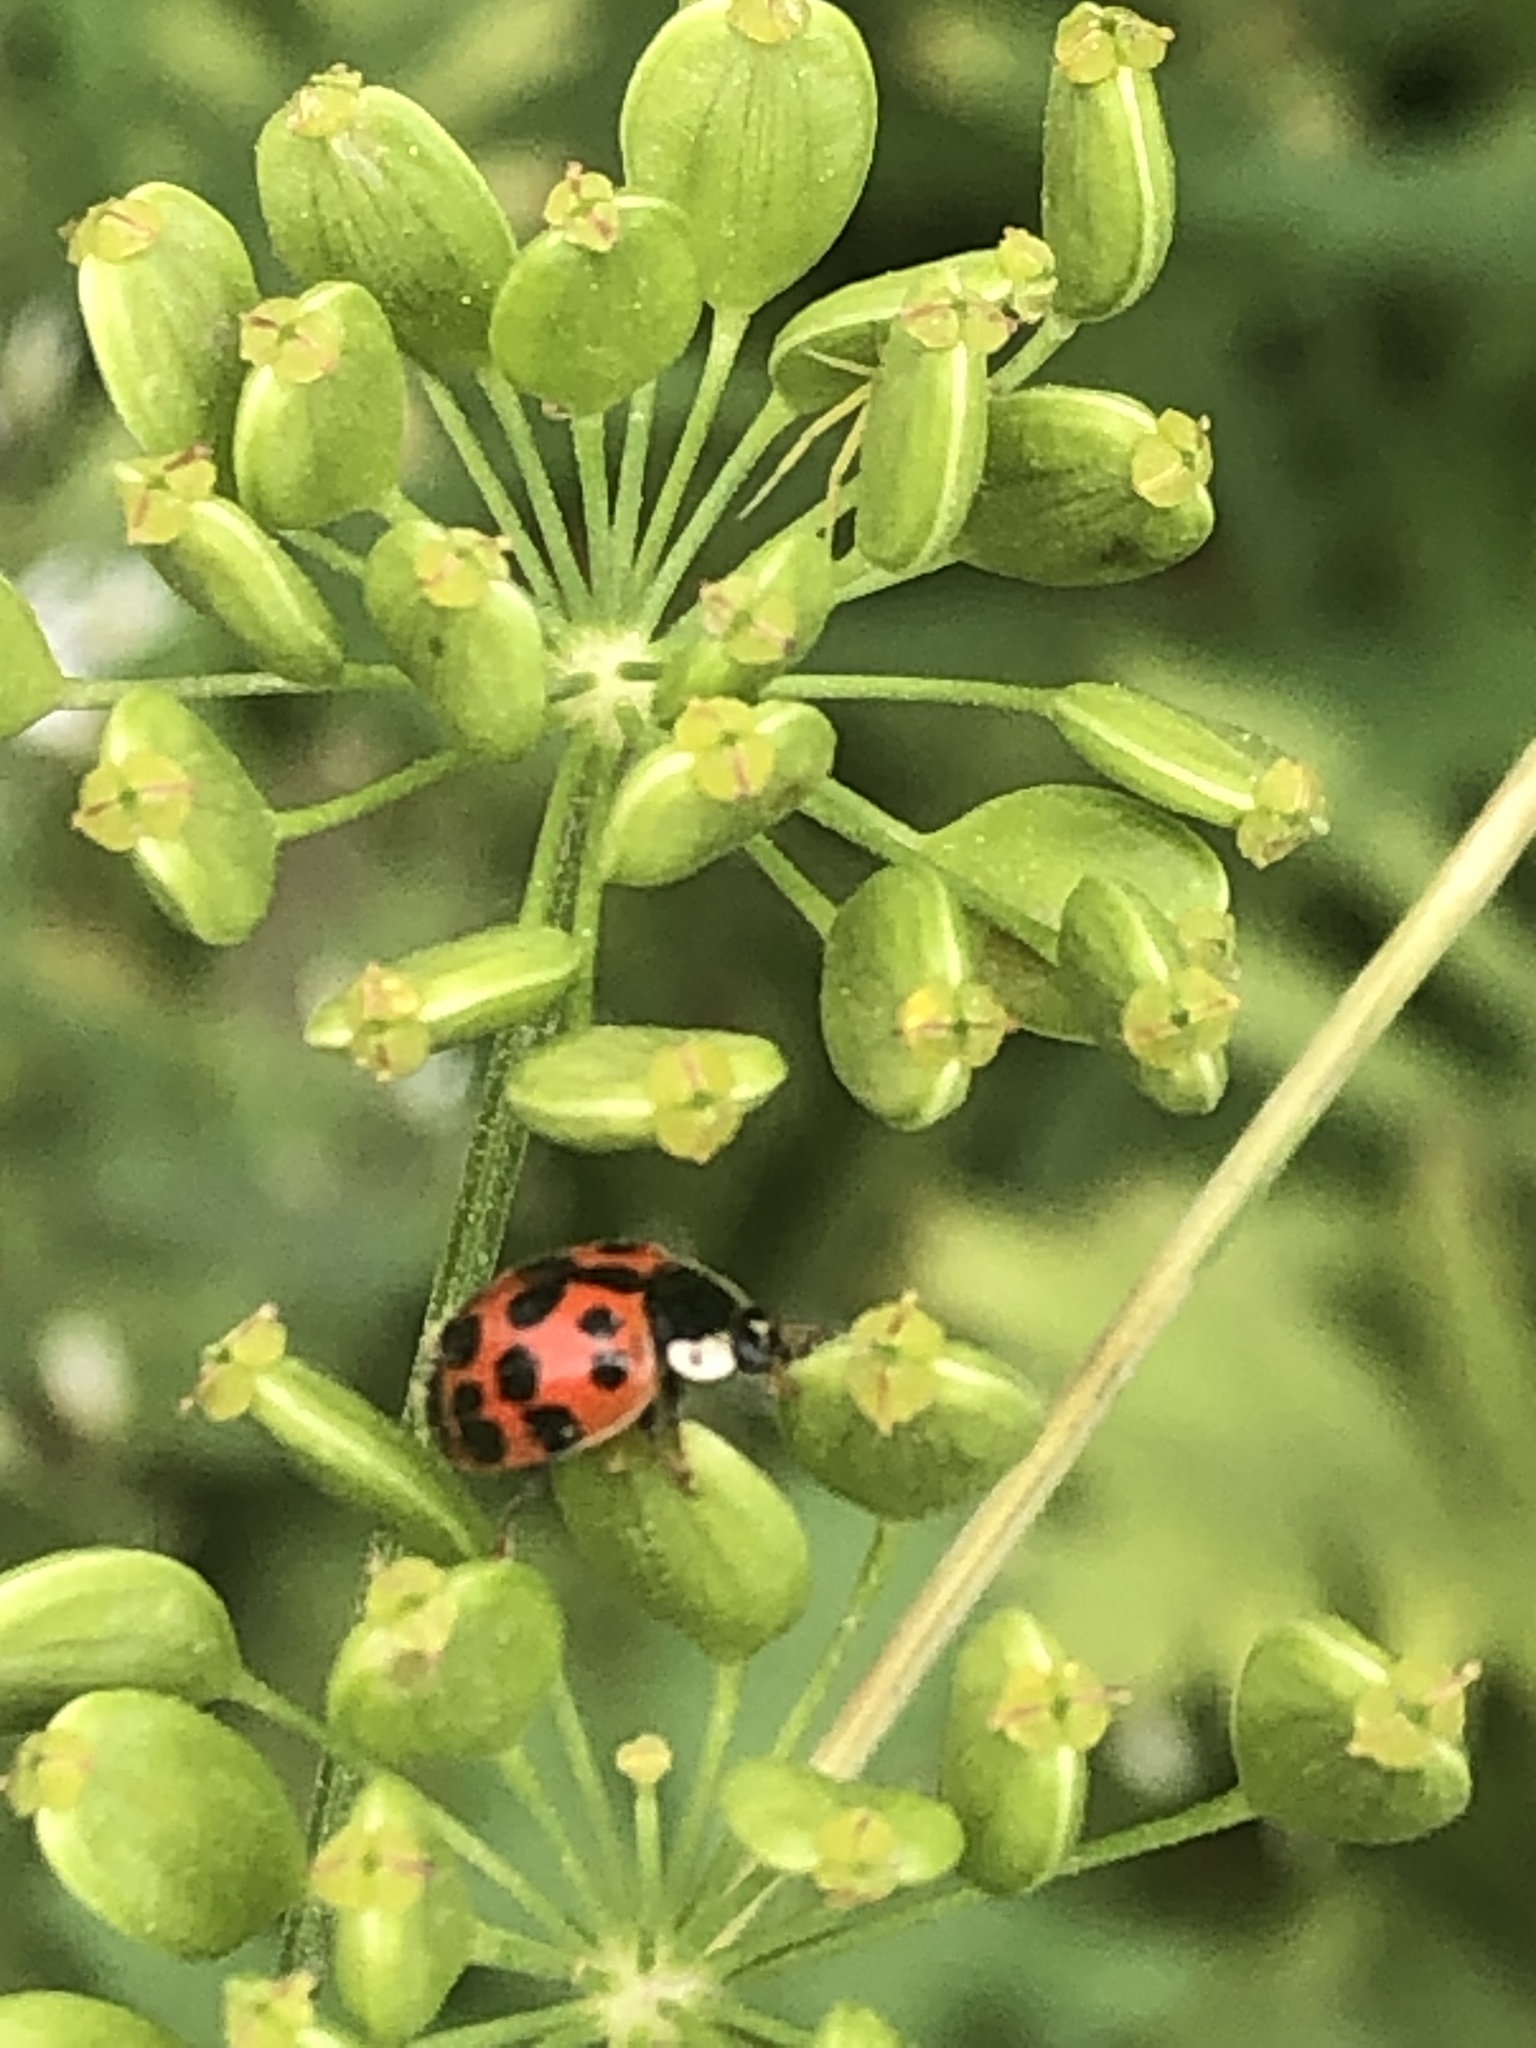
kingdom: Animalia
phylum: Arthropoda
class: Insecta
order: Coleoptera
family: Coccinellidae
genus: Harmonia
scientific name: Harmonia axyridis
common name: Harlequin ladybird
